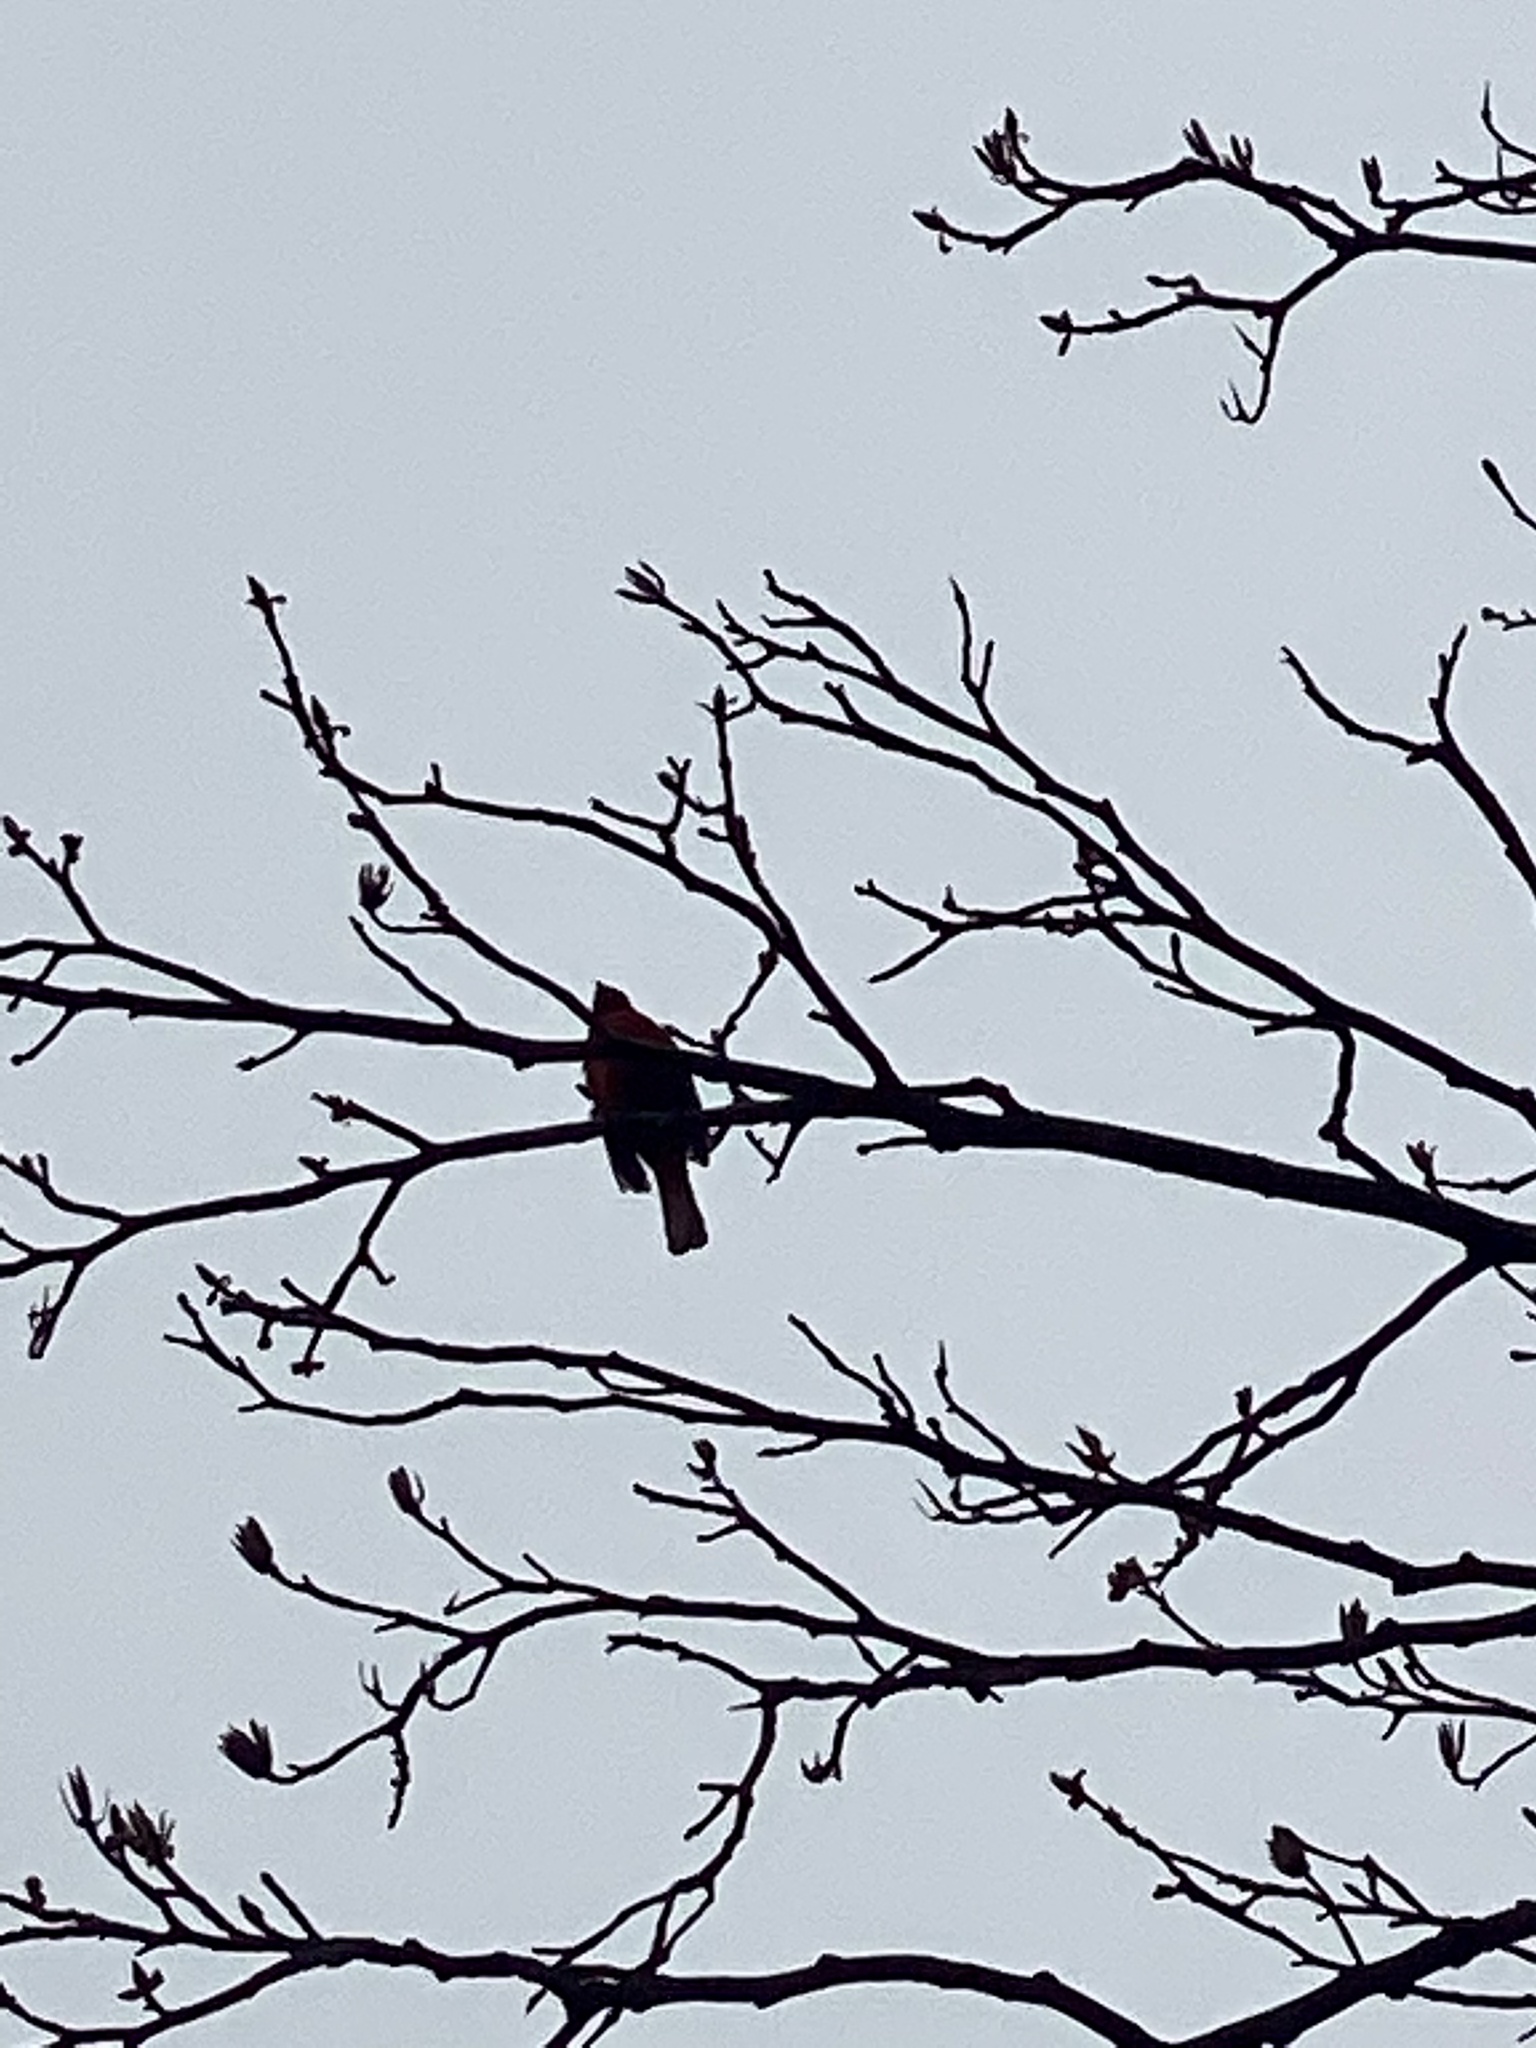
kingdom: Animalia
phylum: Chordata
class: Aves
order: Passeriformes
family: Cardinalidae
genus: Cardinalis
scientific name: Cardinalis cardinalis
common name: Northern cardinal
